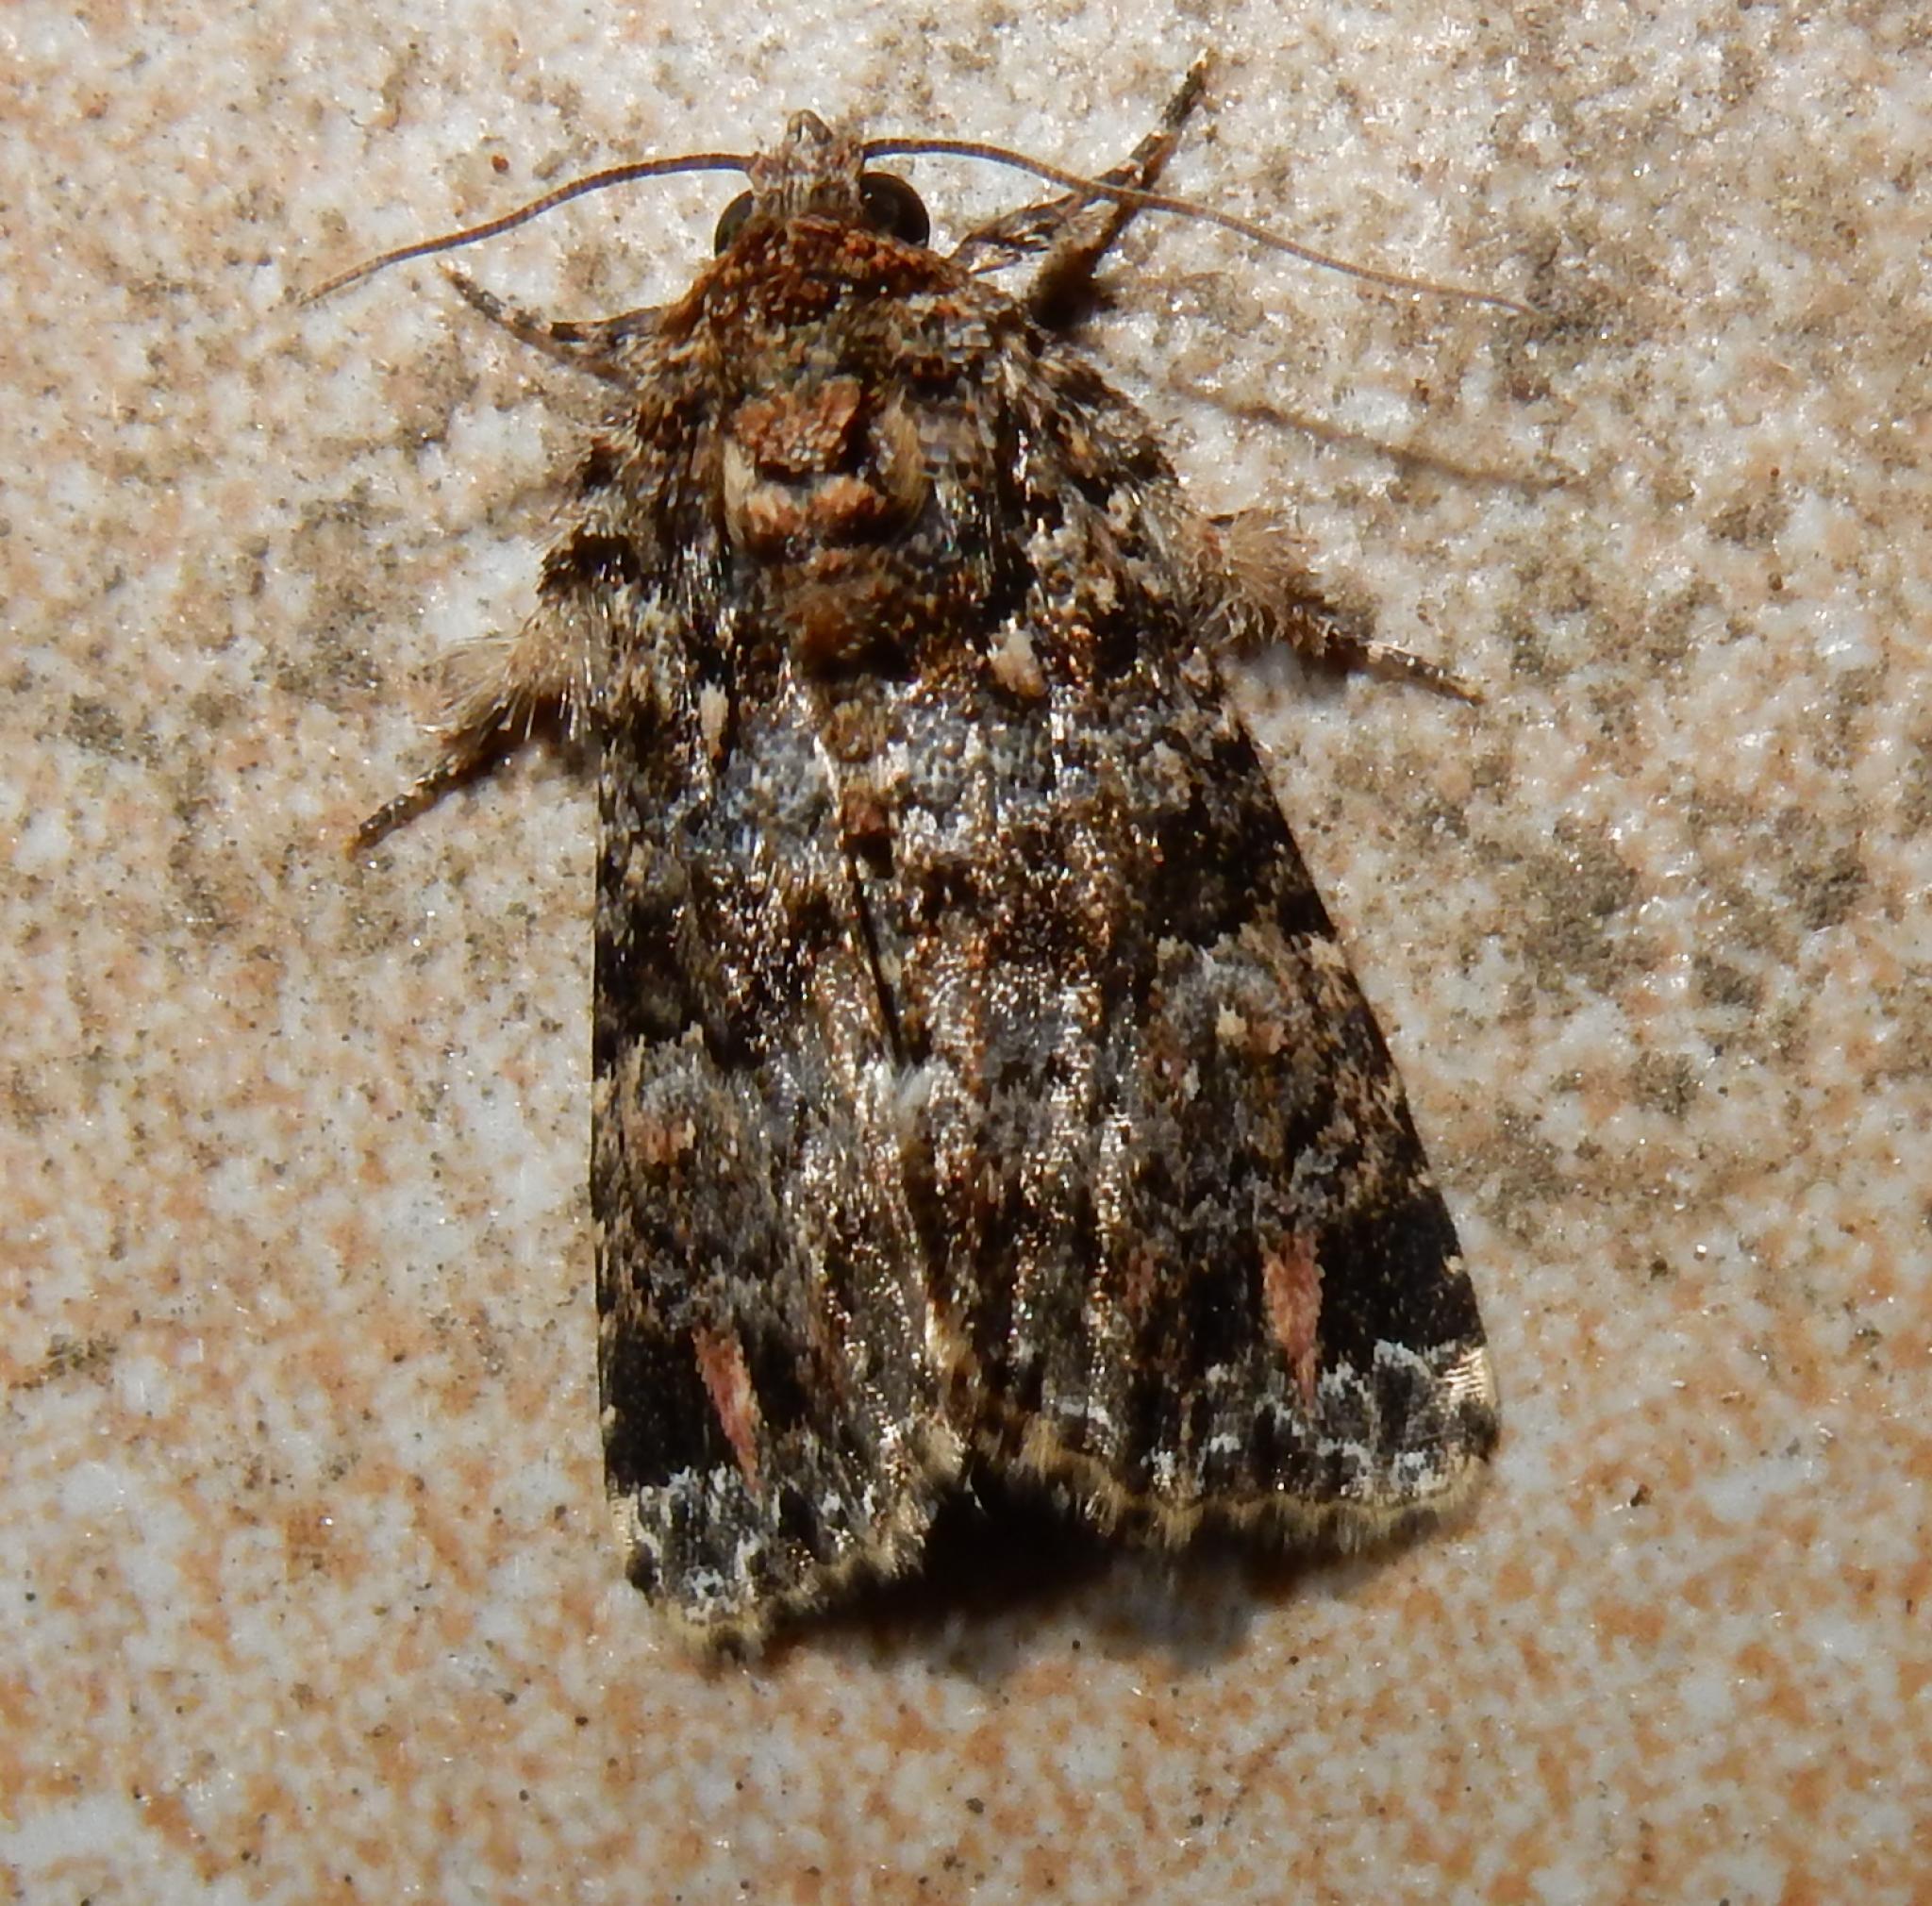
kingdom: Animalia
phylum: Arthropoda
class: Insecta
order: Lepidoptera
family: Noctuidae
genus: Callopistria
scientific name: Callopistria latreillei
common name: Latreille's latin
